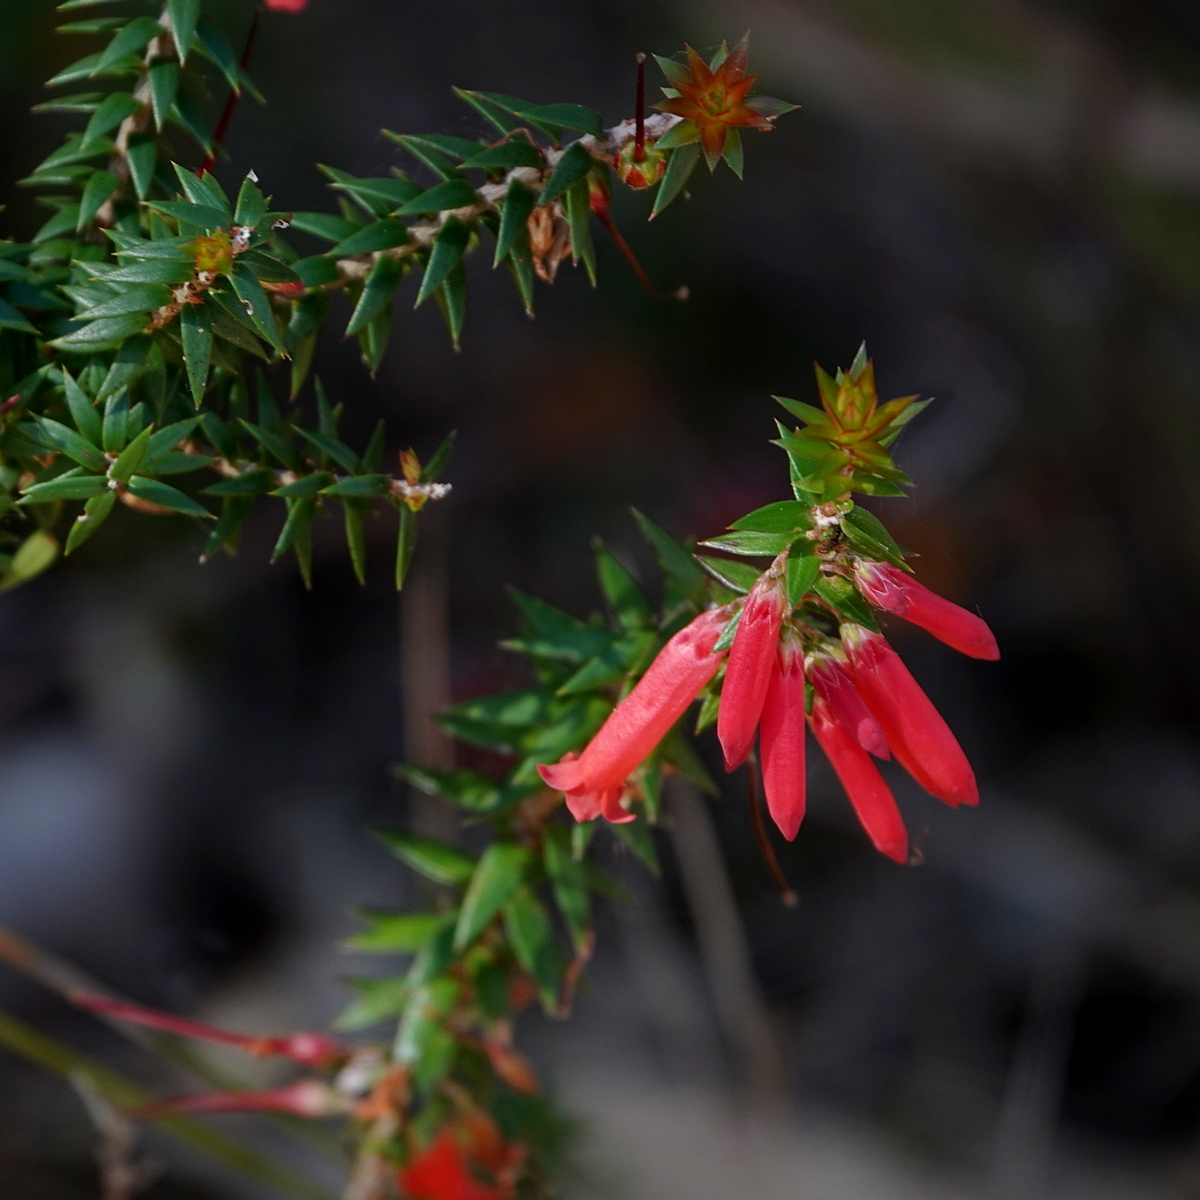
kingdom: Plantae
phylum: Tracheophyta
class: Magnoliopsida
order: Ericales
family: Ericaceae
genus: Epacris
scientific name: Epacris impressa
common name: Common-heath
